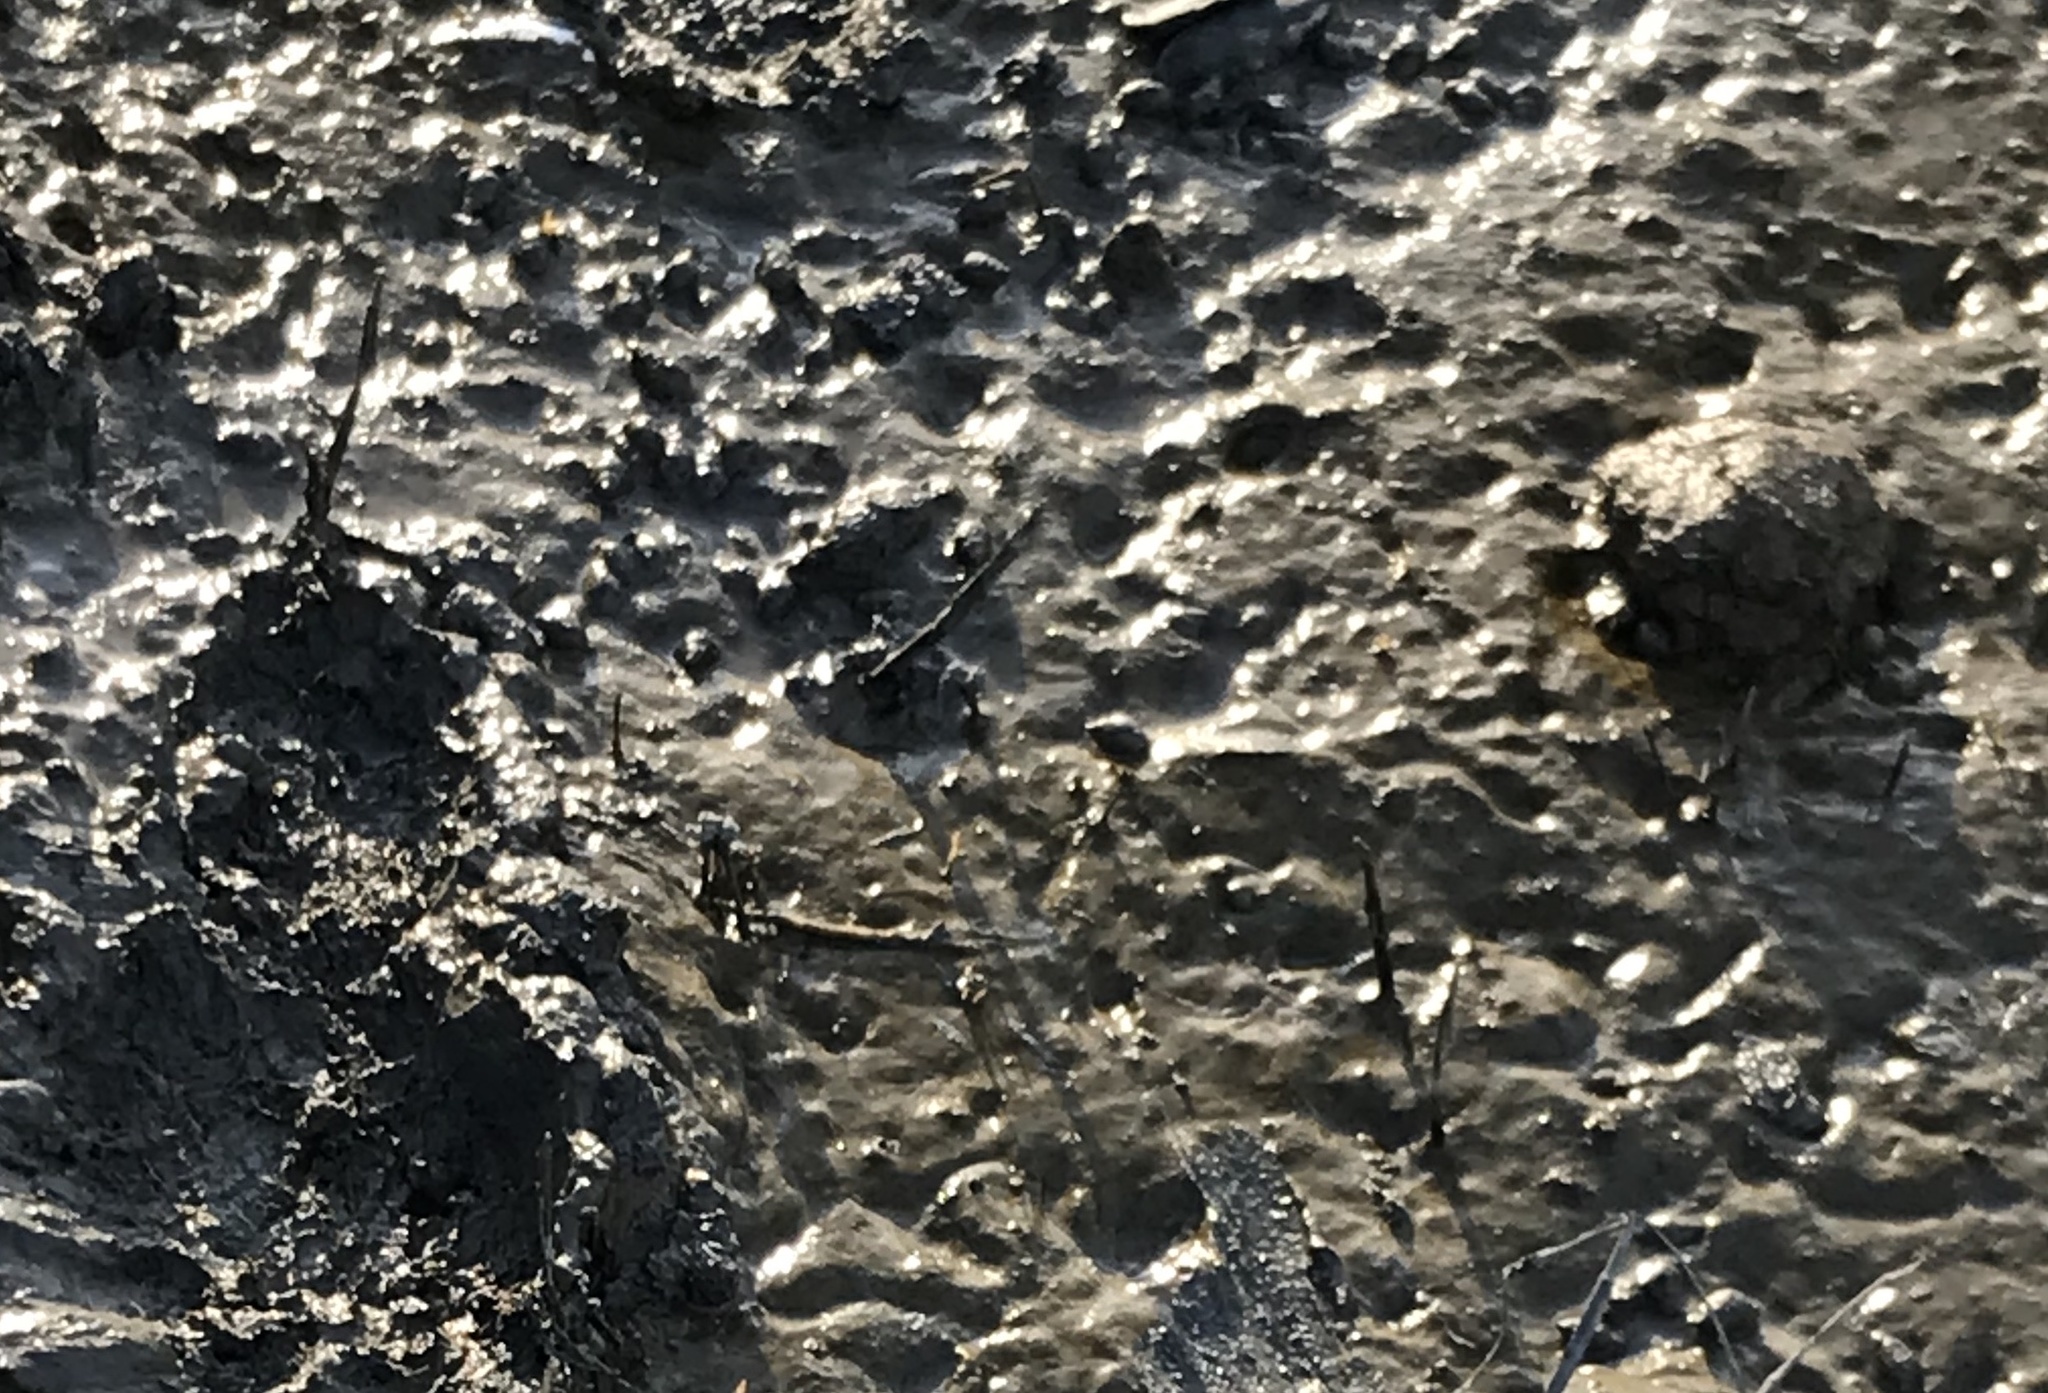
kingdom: Animalia
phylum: Mollusca
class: Gastropoda
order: Neogastropoda
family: Nassariidae
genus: Ilyanassa
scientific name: Ilyanassa obsoleta
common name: Eastern mudsnail
